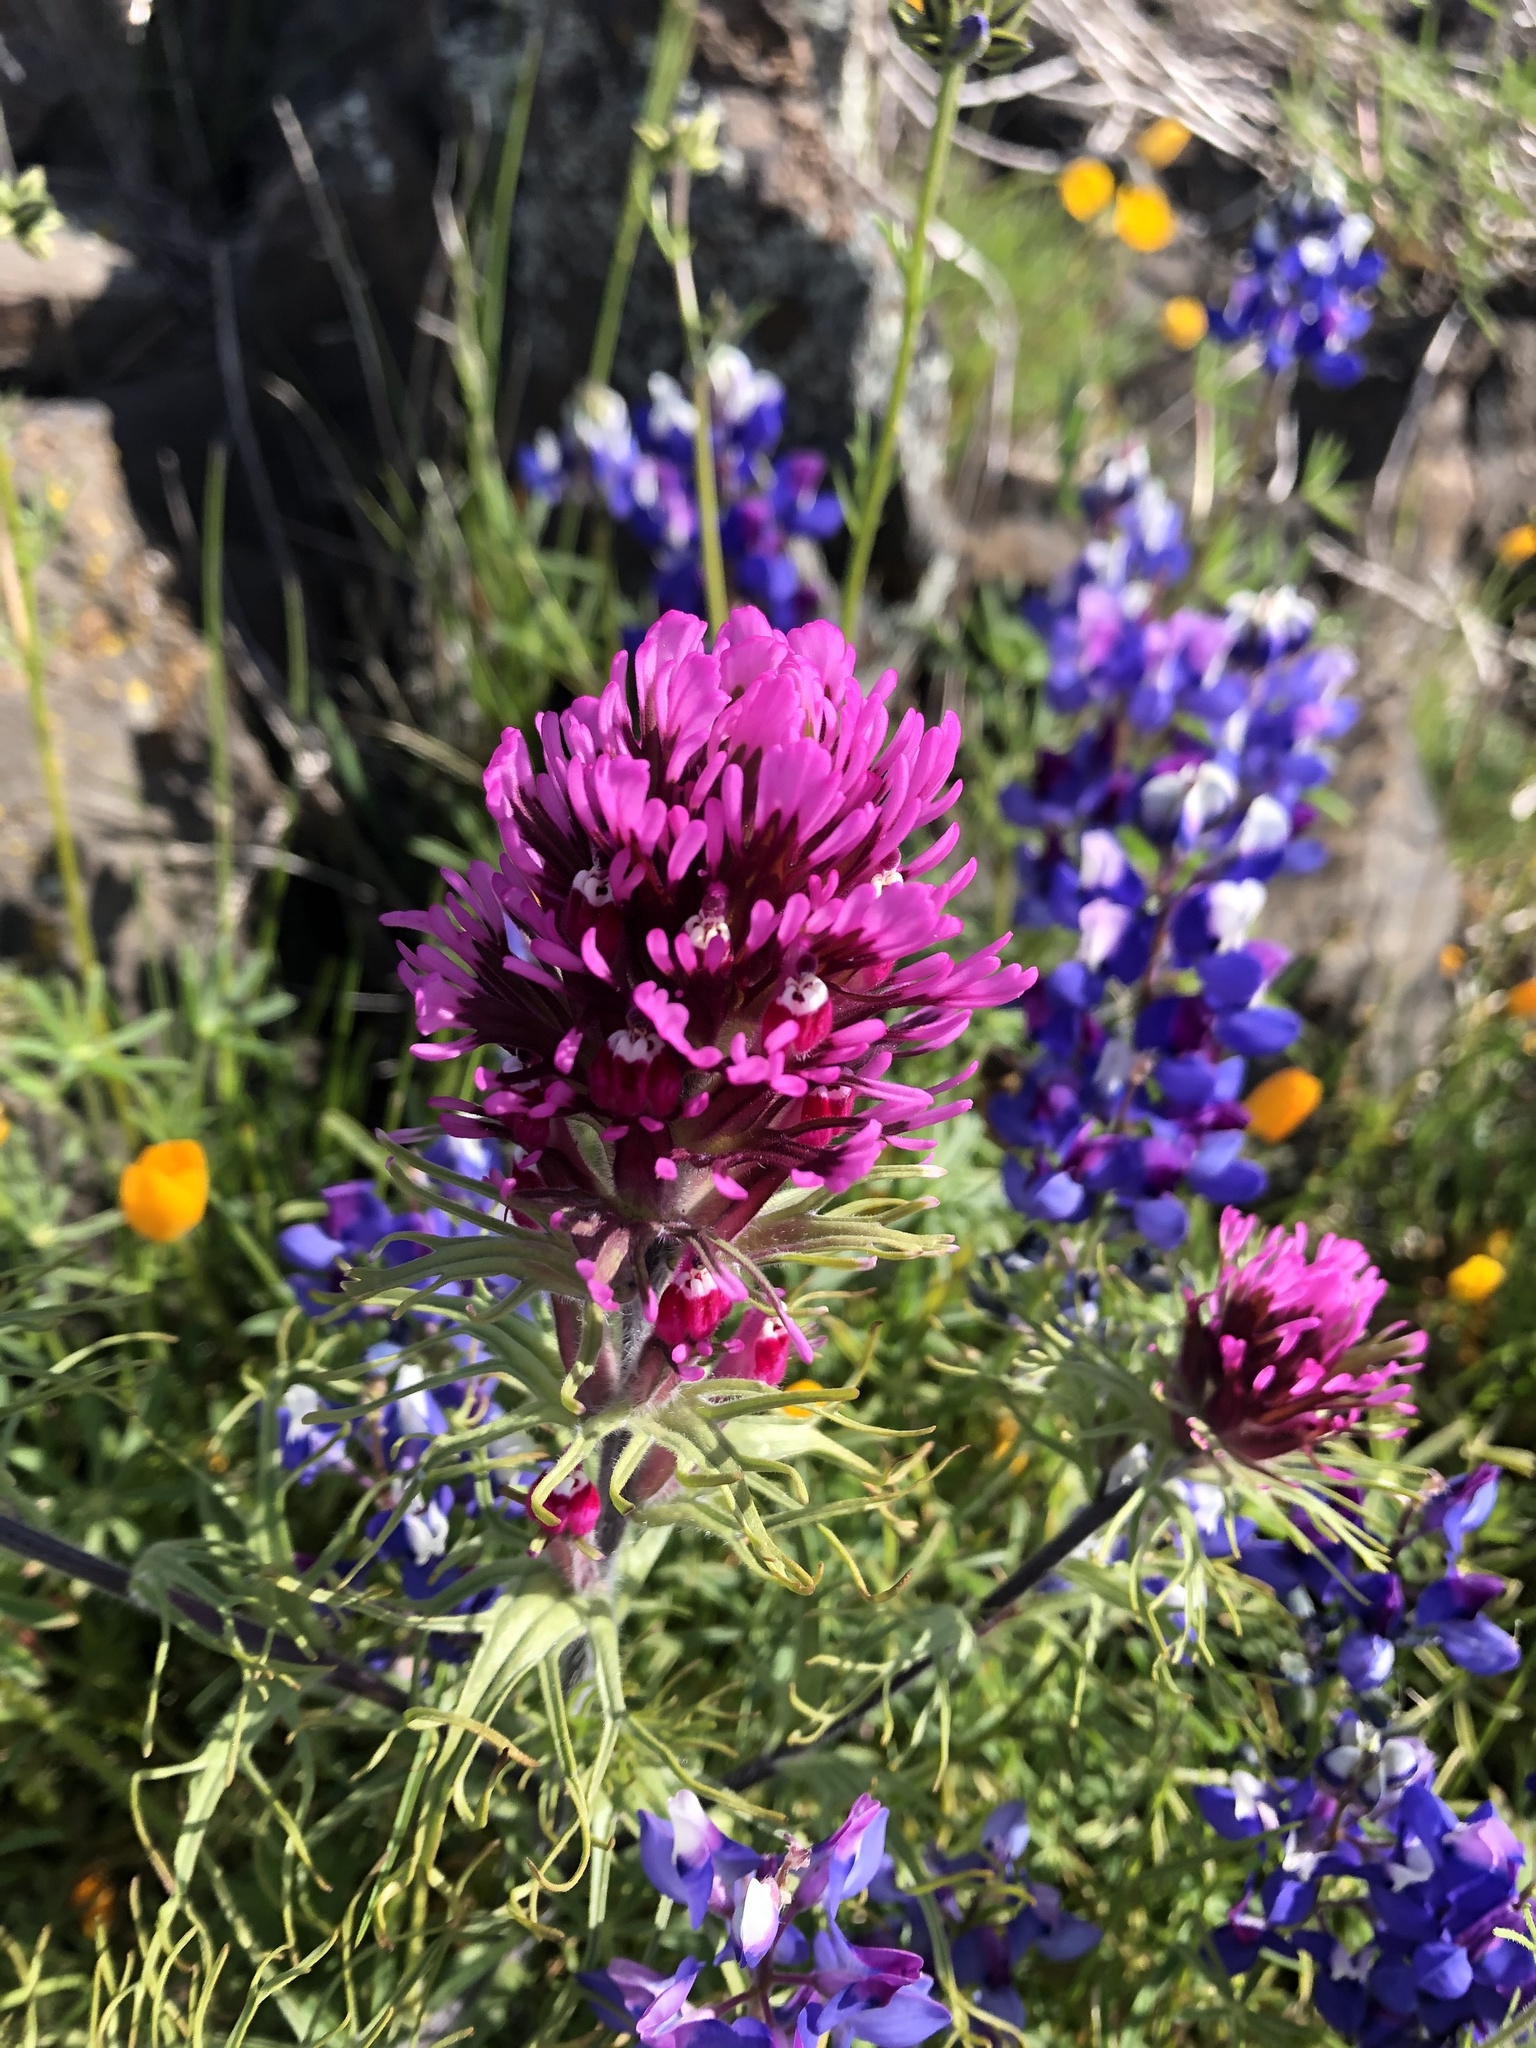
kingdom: Plantae
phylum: Tracheophyta
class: Magnoliopsida
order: Lamiales
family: Orobanchaceae
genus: Castilleja
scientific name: Castilleja exserta
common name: Purple owl-clover
